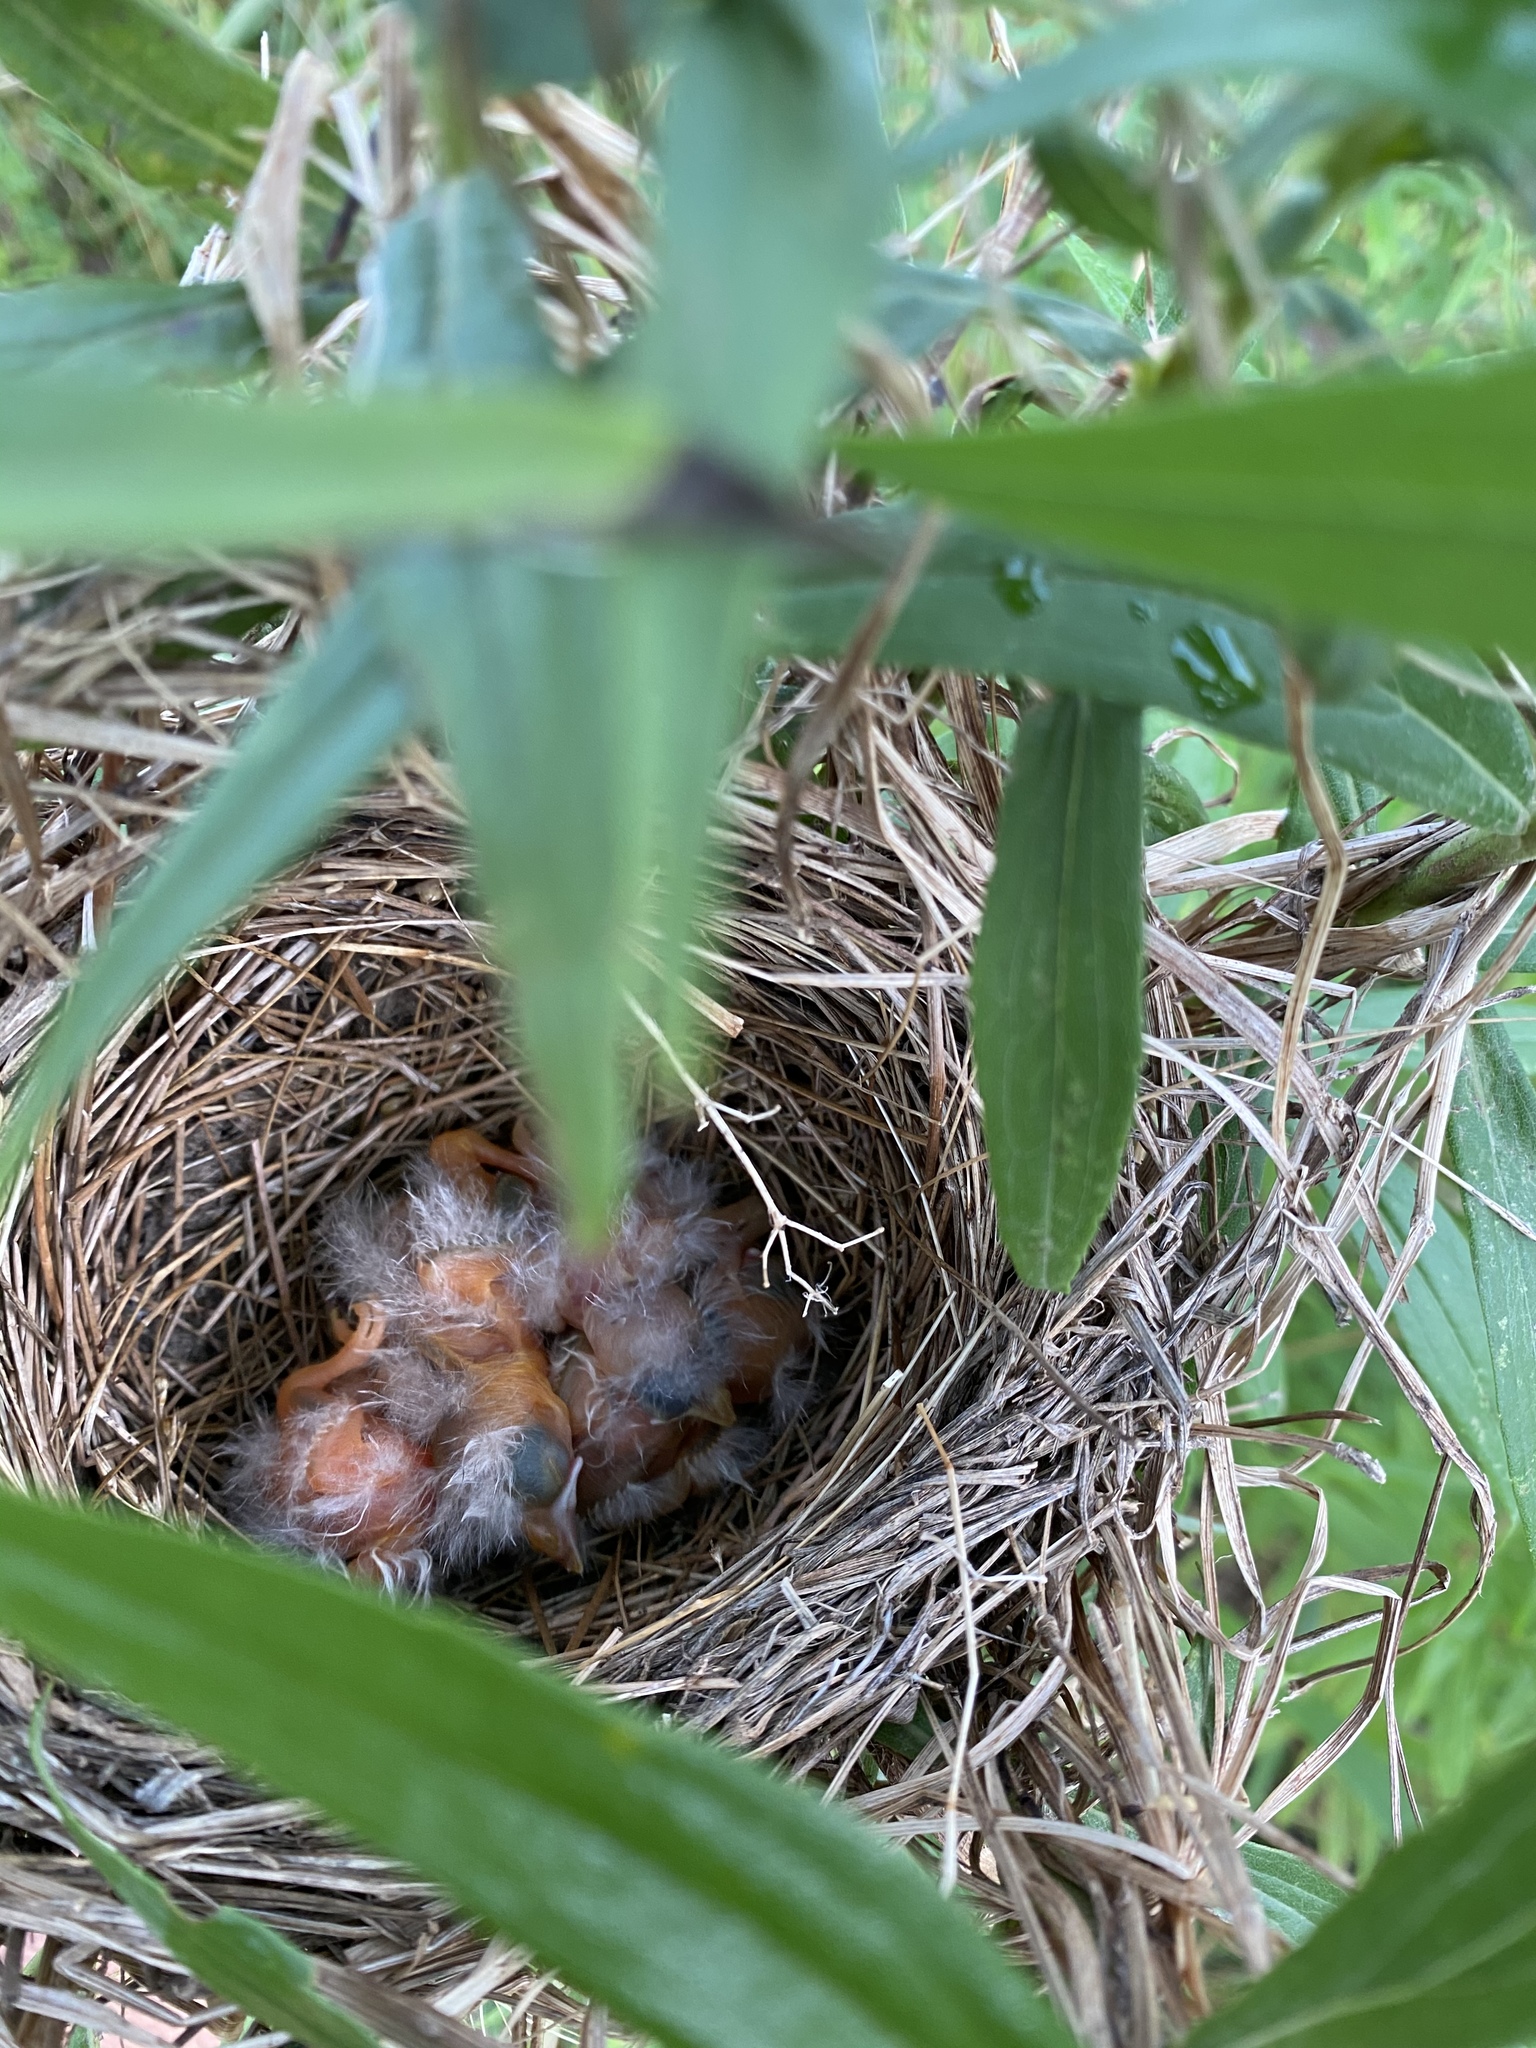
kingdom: Animalia
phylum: Chordata
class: Aves
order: Passeriformes
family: Icteridae
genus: Agelaius
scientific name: Agelaius phoeniceus
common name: Red-winged blackbird
